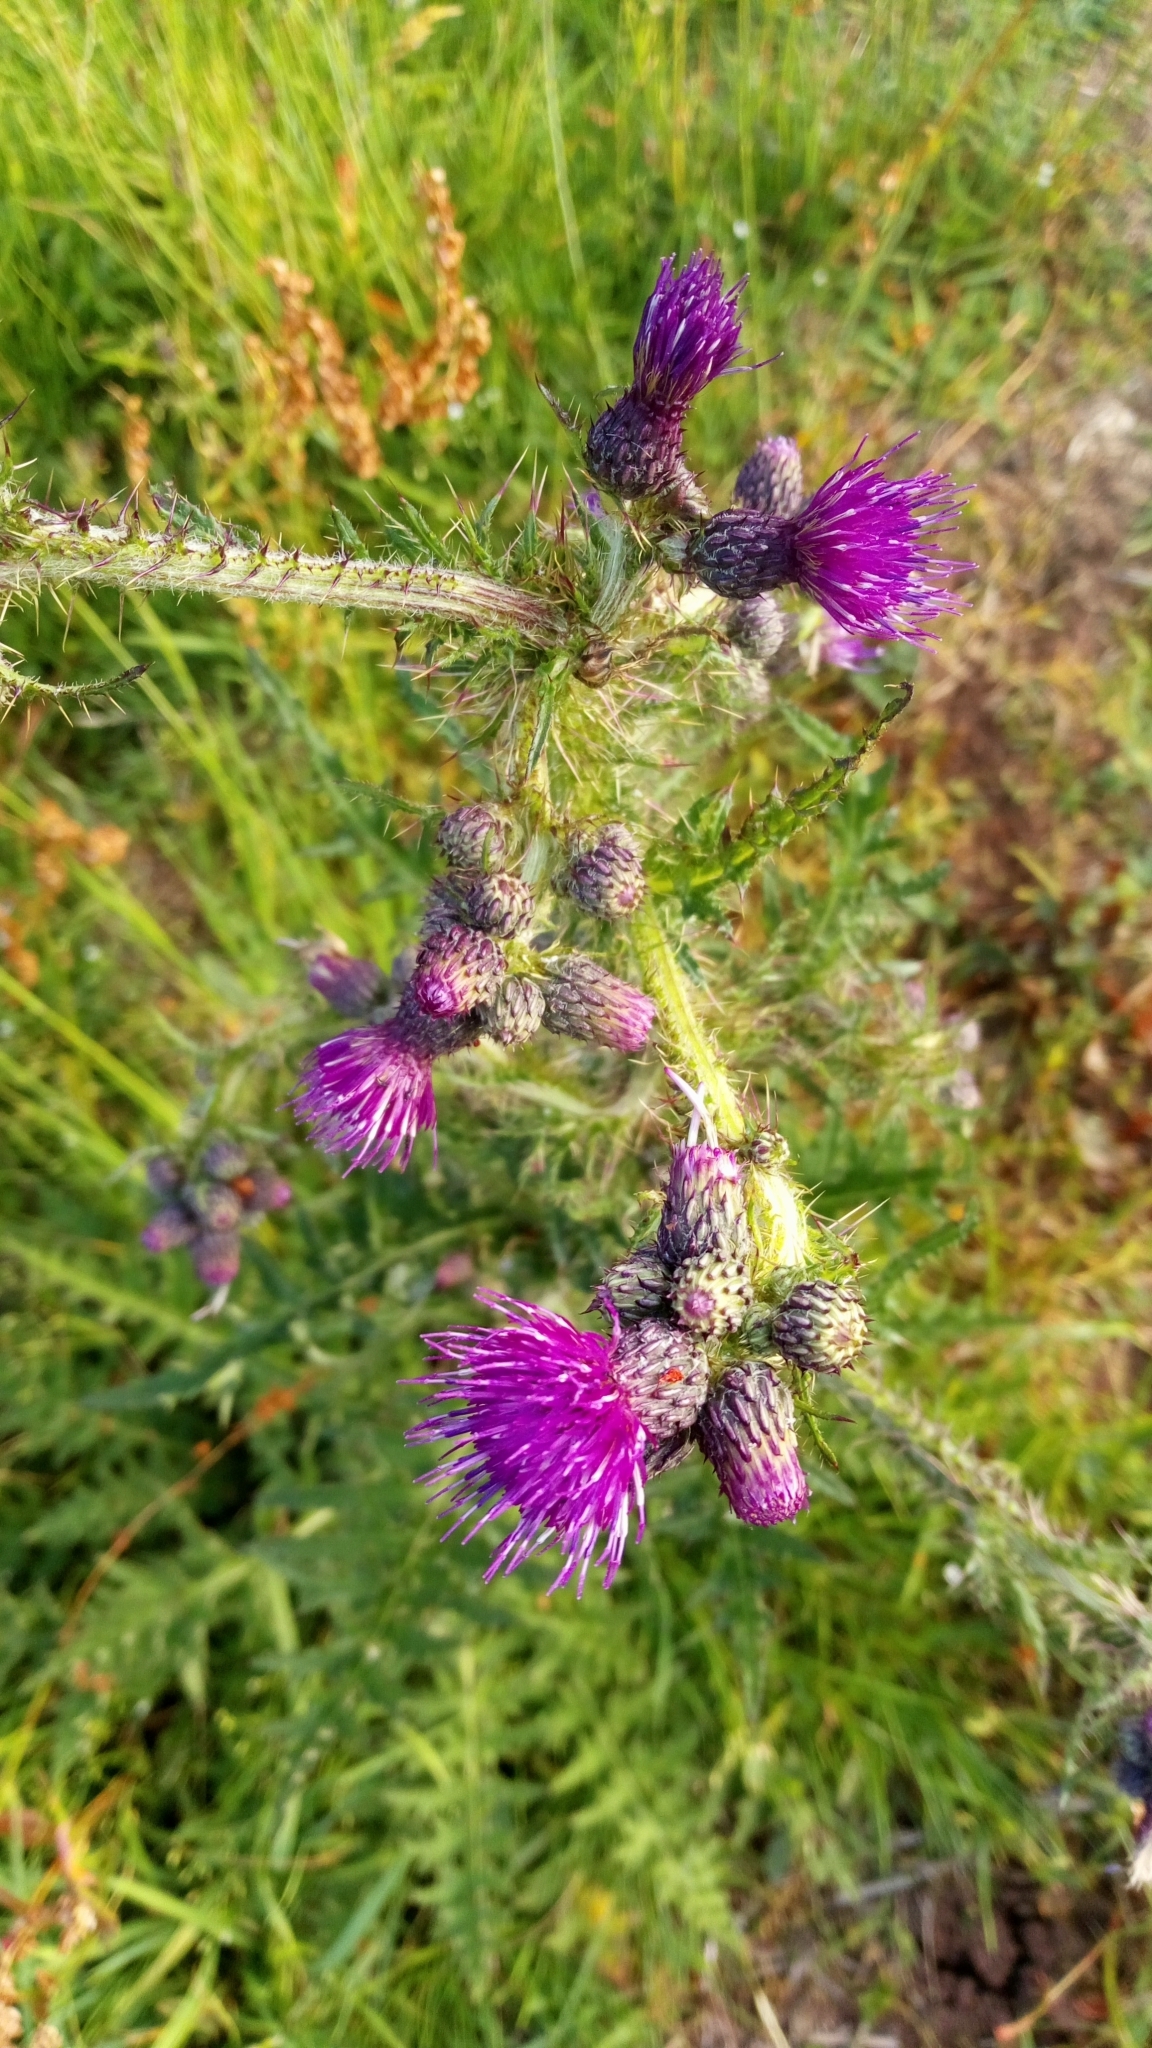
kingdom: Plantae
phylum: Tracheophyta
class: Magnoliopsida
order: Asterales
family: Asteraceae
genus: Cirsium
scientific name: Cirsium palustre
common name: Marsh thistle
